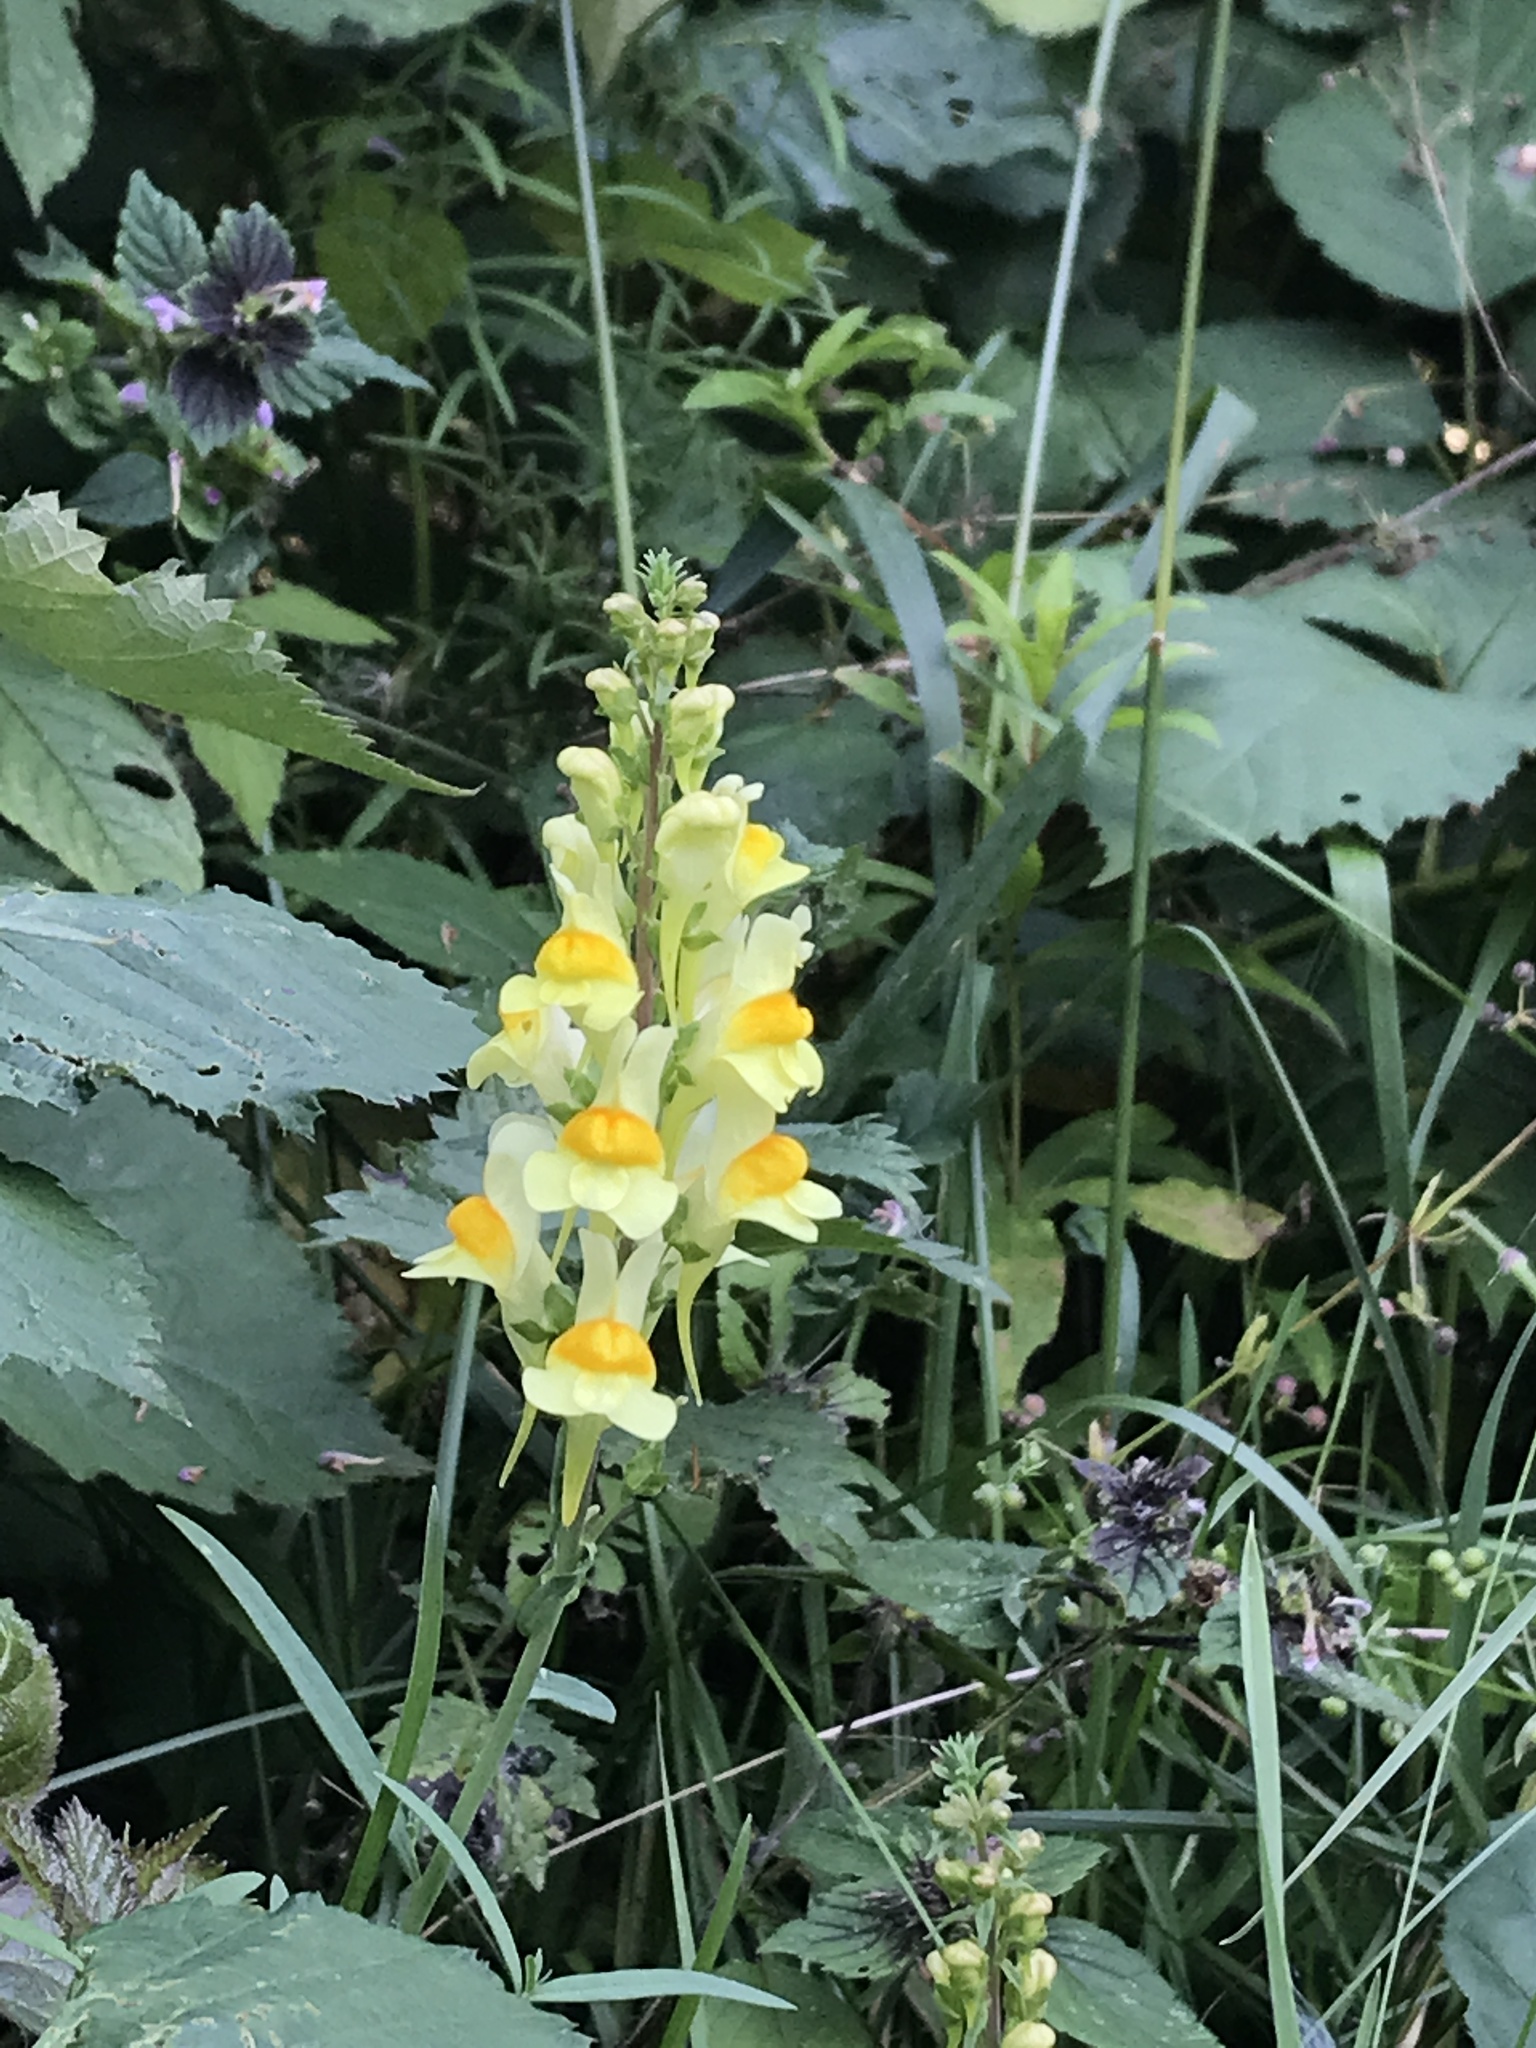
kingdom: Plantae
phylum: Tracheophyta
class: Magnoliopsida
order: Lamiales
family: Plantaginaceae
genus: Linaria
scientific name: Linaria vulgaris
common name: Butter and eggs
